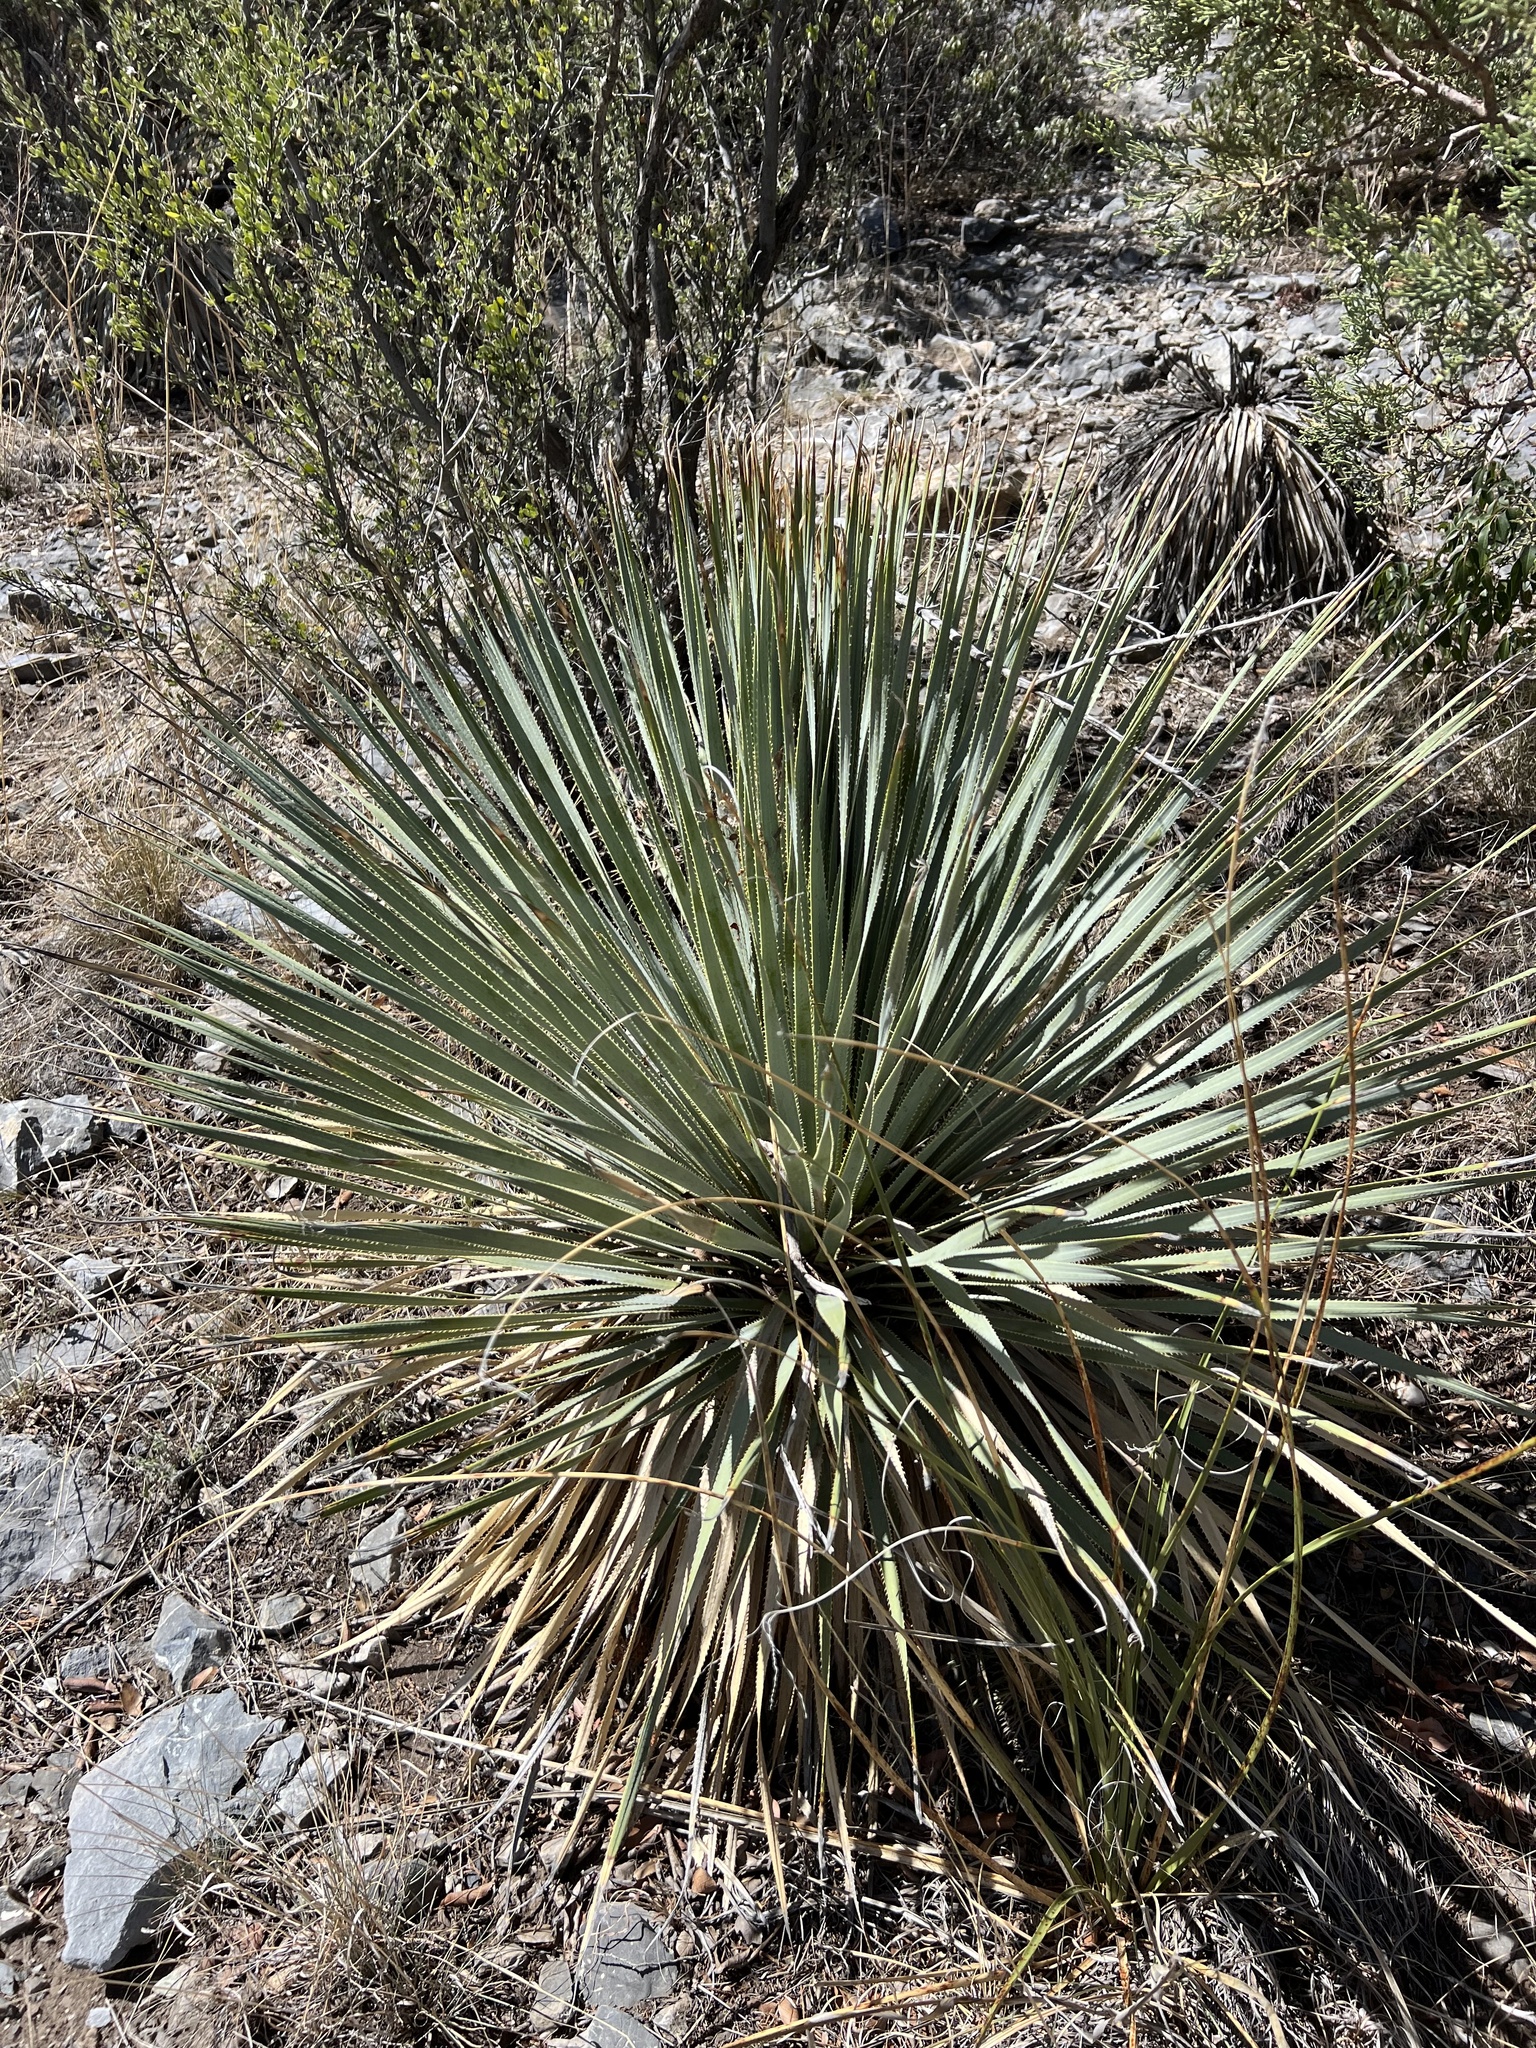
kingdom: Plantae
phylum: Tracheophyta
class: Liliopsida
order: Asparagales
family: Asparagaceae
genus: Dasylirion
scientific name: Dasylirion wheeleri
